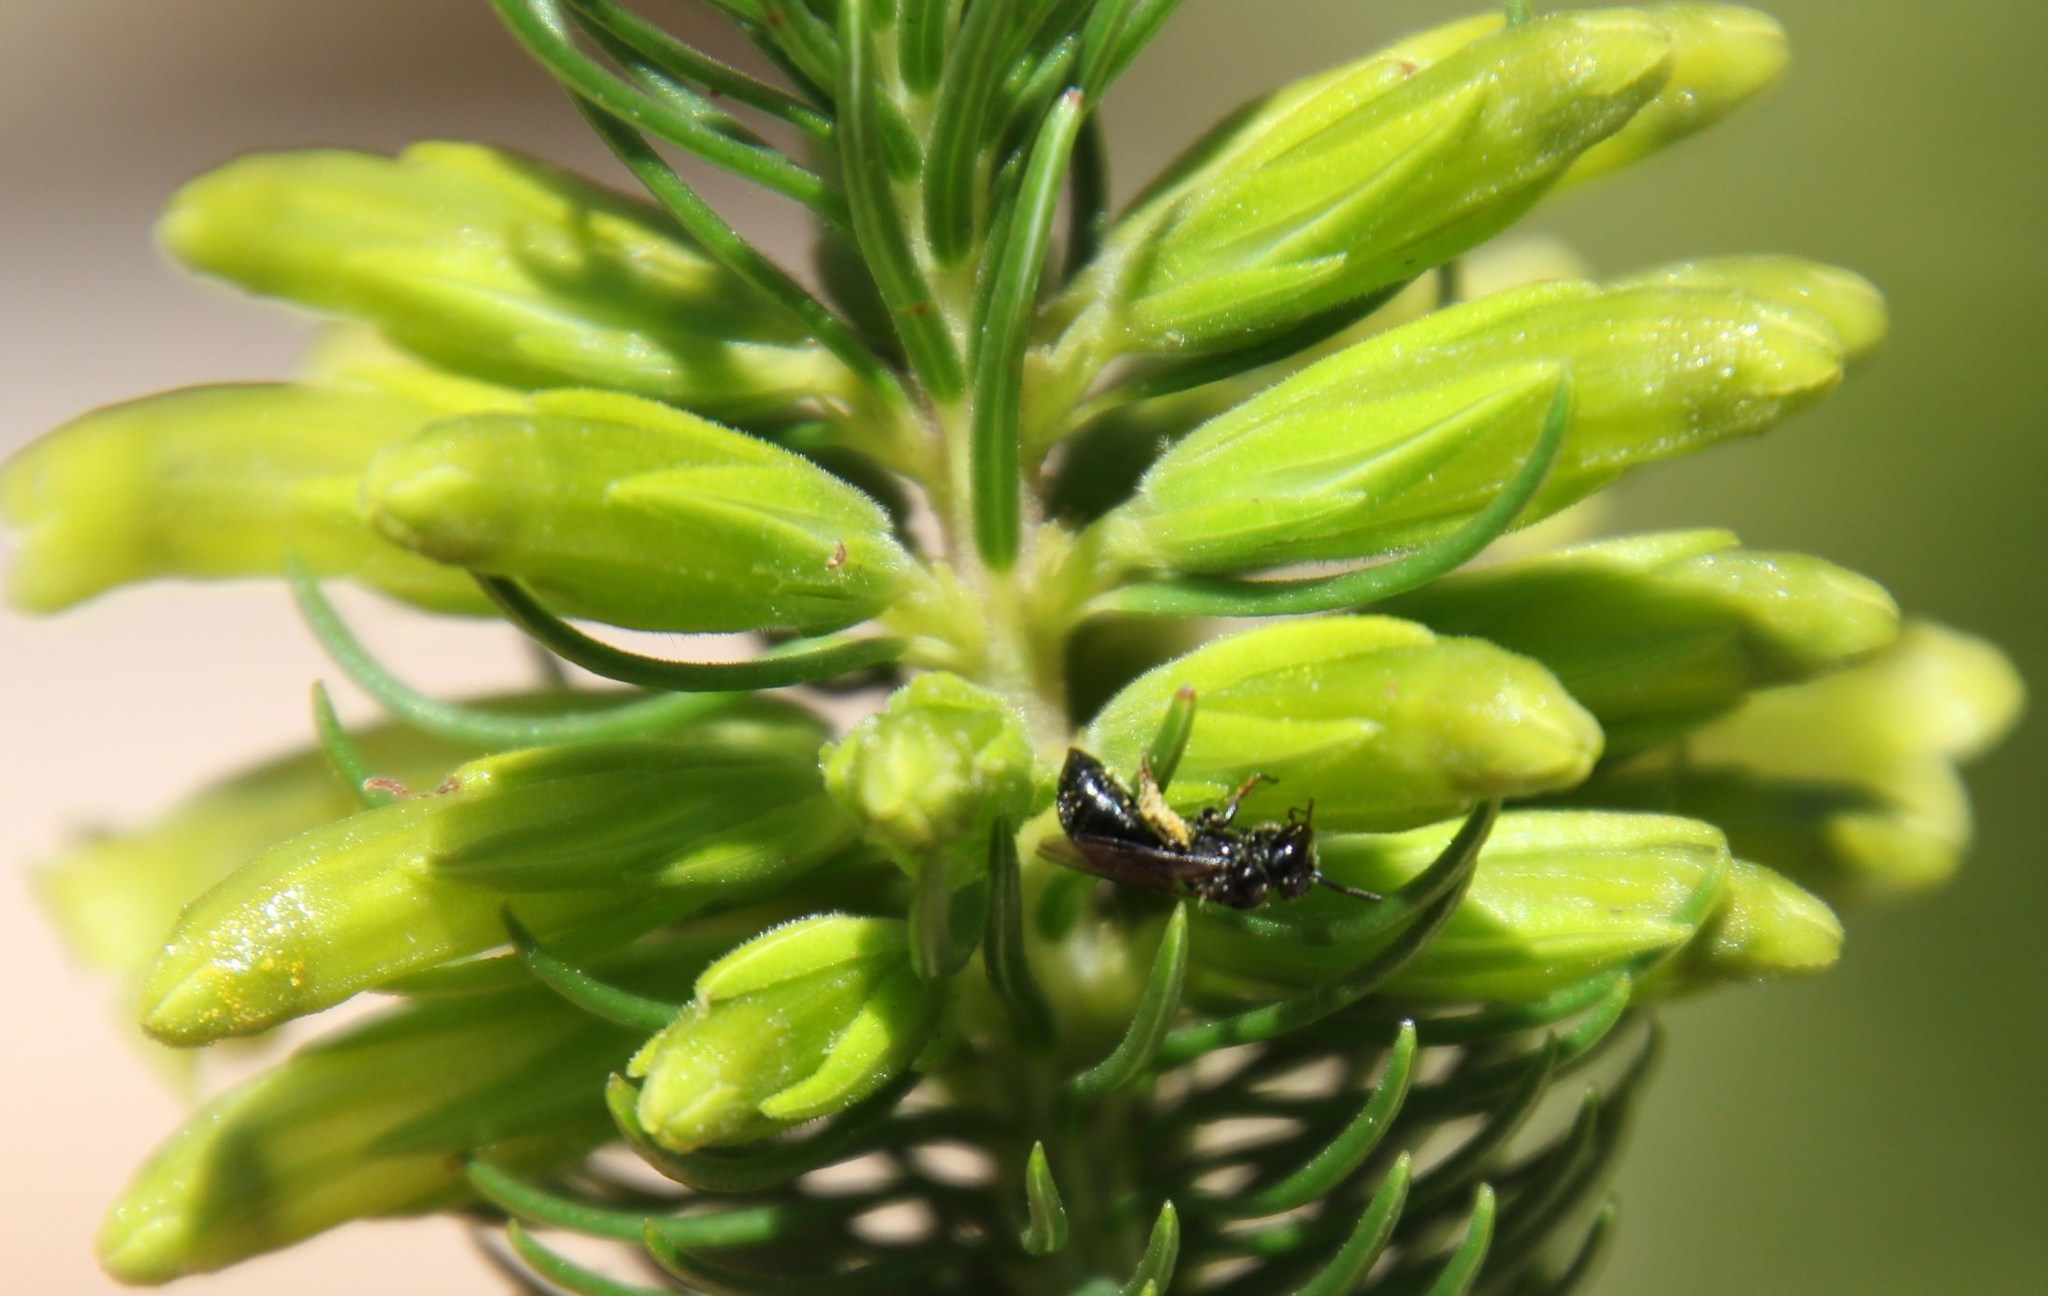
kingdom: Plantae
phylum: Tracheophyta
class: Magnoliopsida
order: Ericales
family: Ericaceae
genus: Erica
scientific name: Erica viscaria
